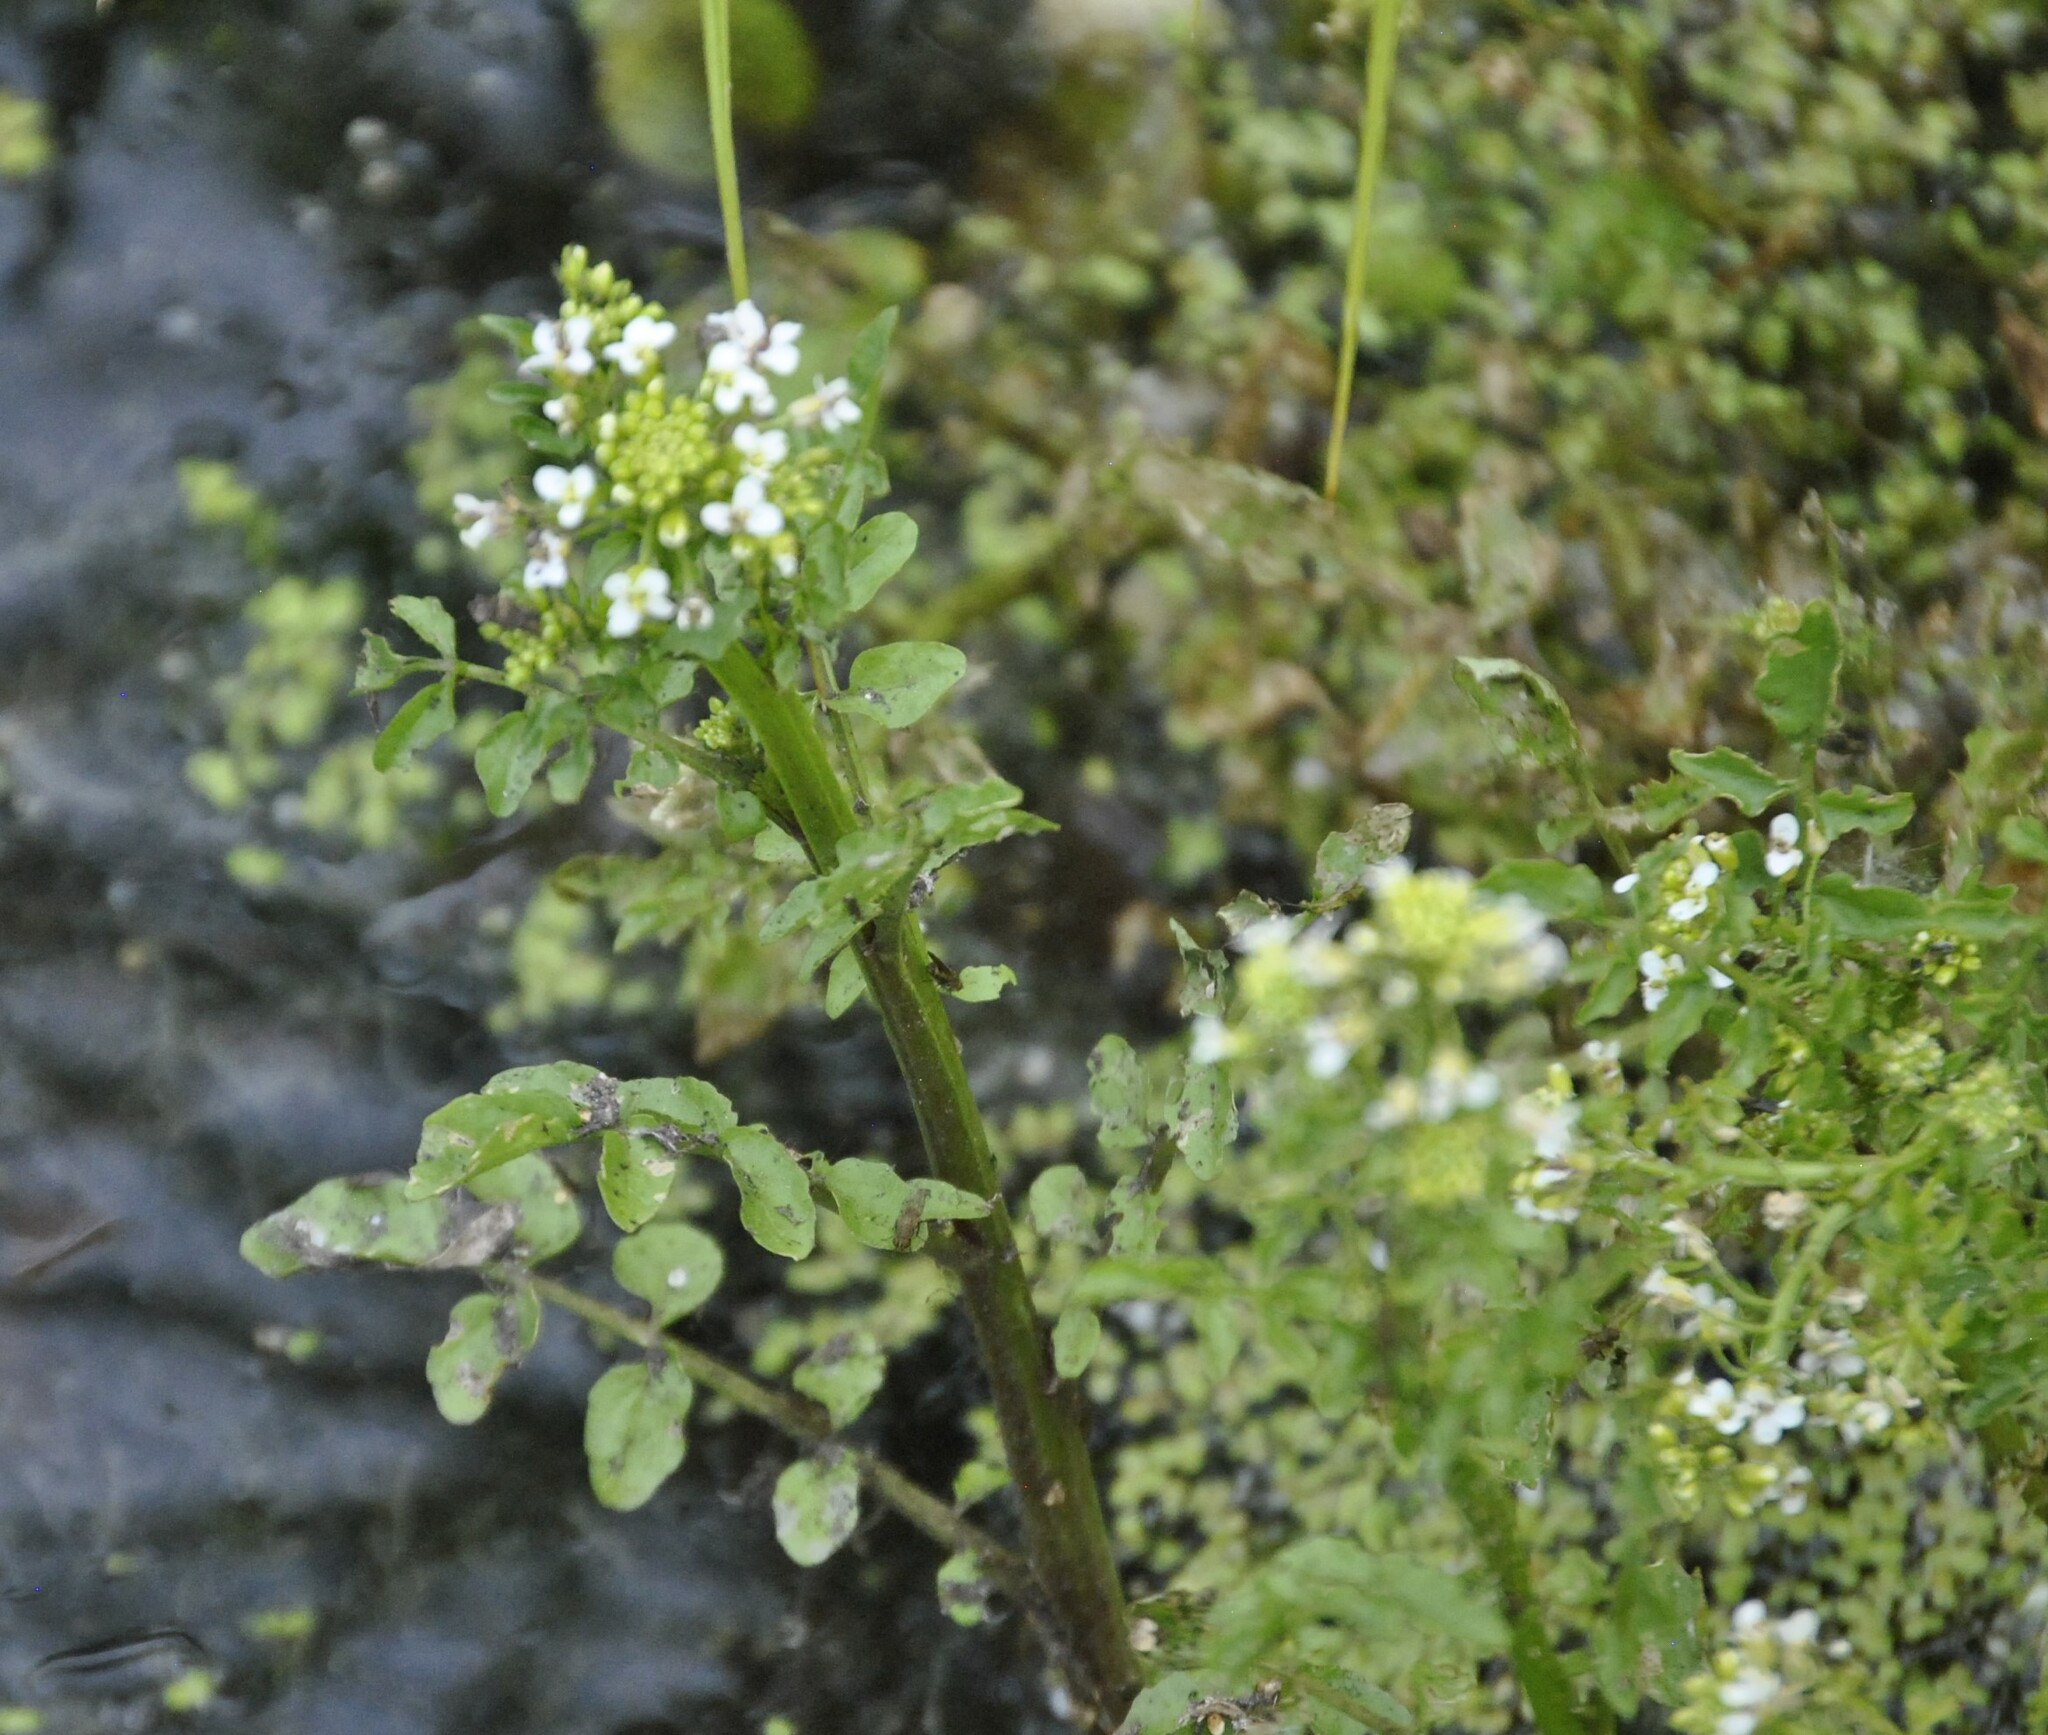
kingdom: Plantae
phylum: Tracheophyta
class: Magnoliopsida
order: Brassicales
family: Brassicaceae
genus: Nasturtium
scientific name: Nasturtium officinale
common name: Watercress
